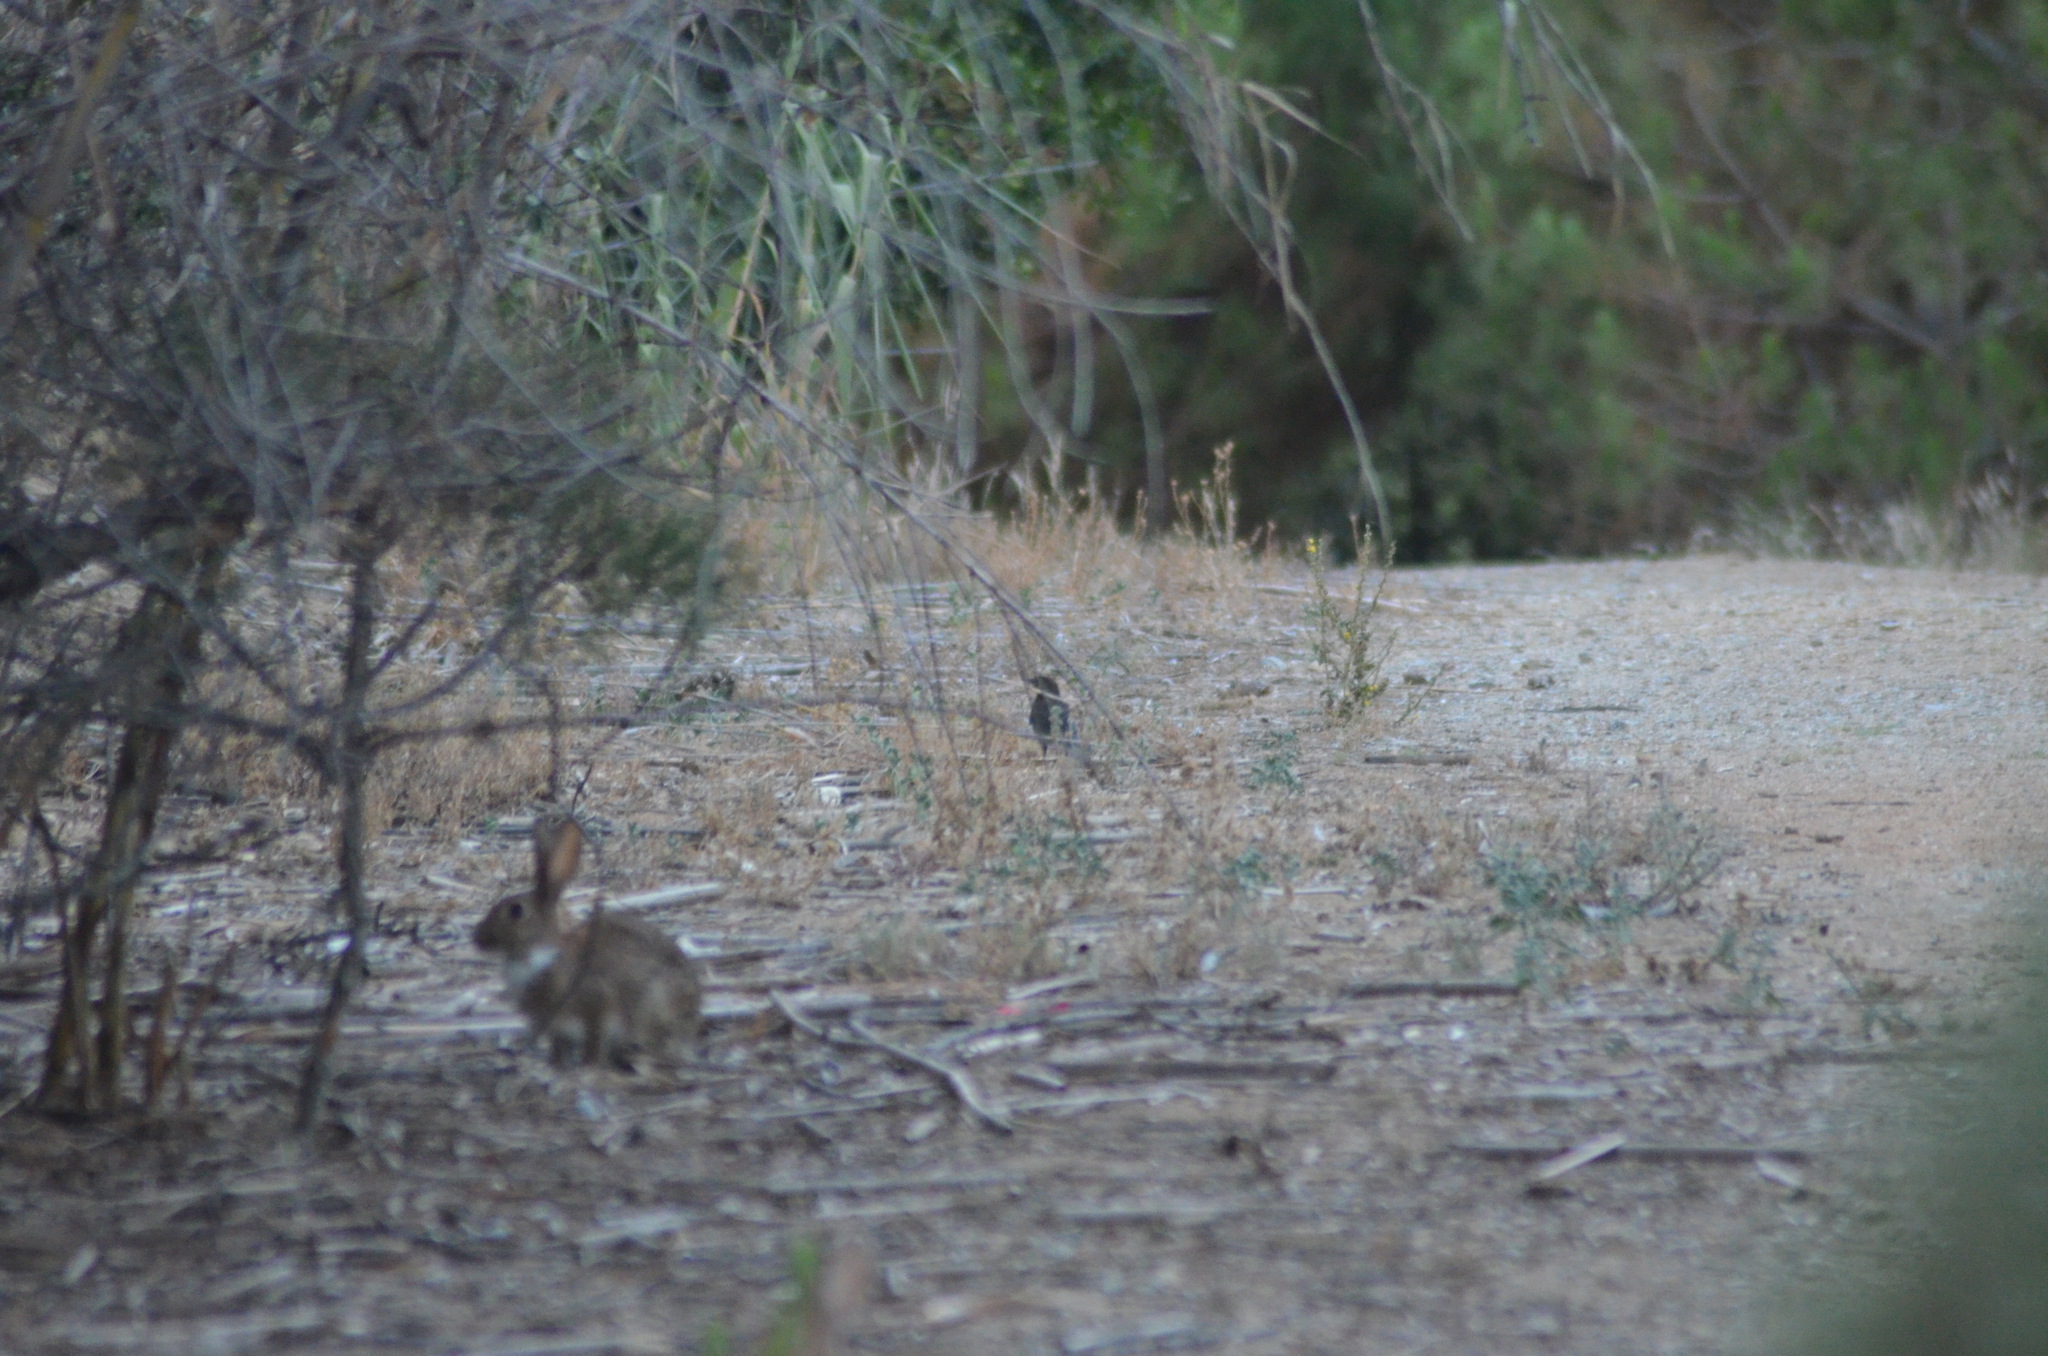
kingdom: Animalia
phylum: Chordata
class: Mammalia
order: Lagomorpha
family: Leporidae
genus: Oryctolagus
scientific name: Oryctolagus cuniculus
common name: European rabbit
